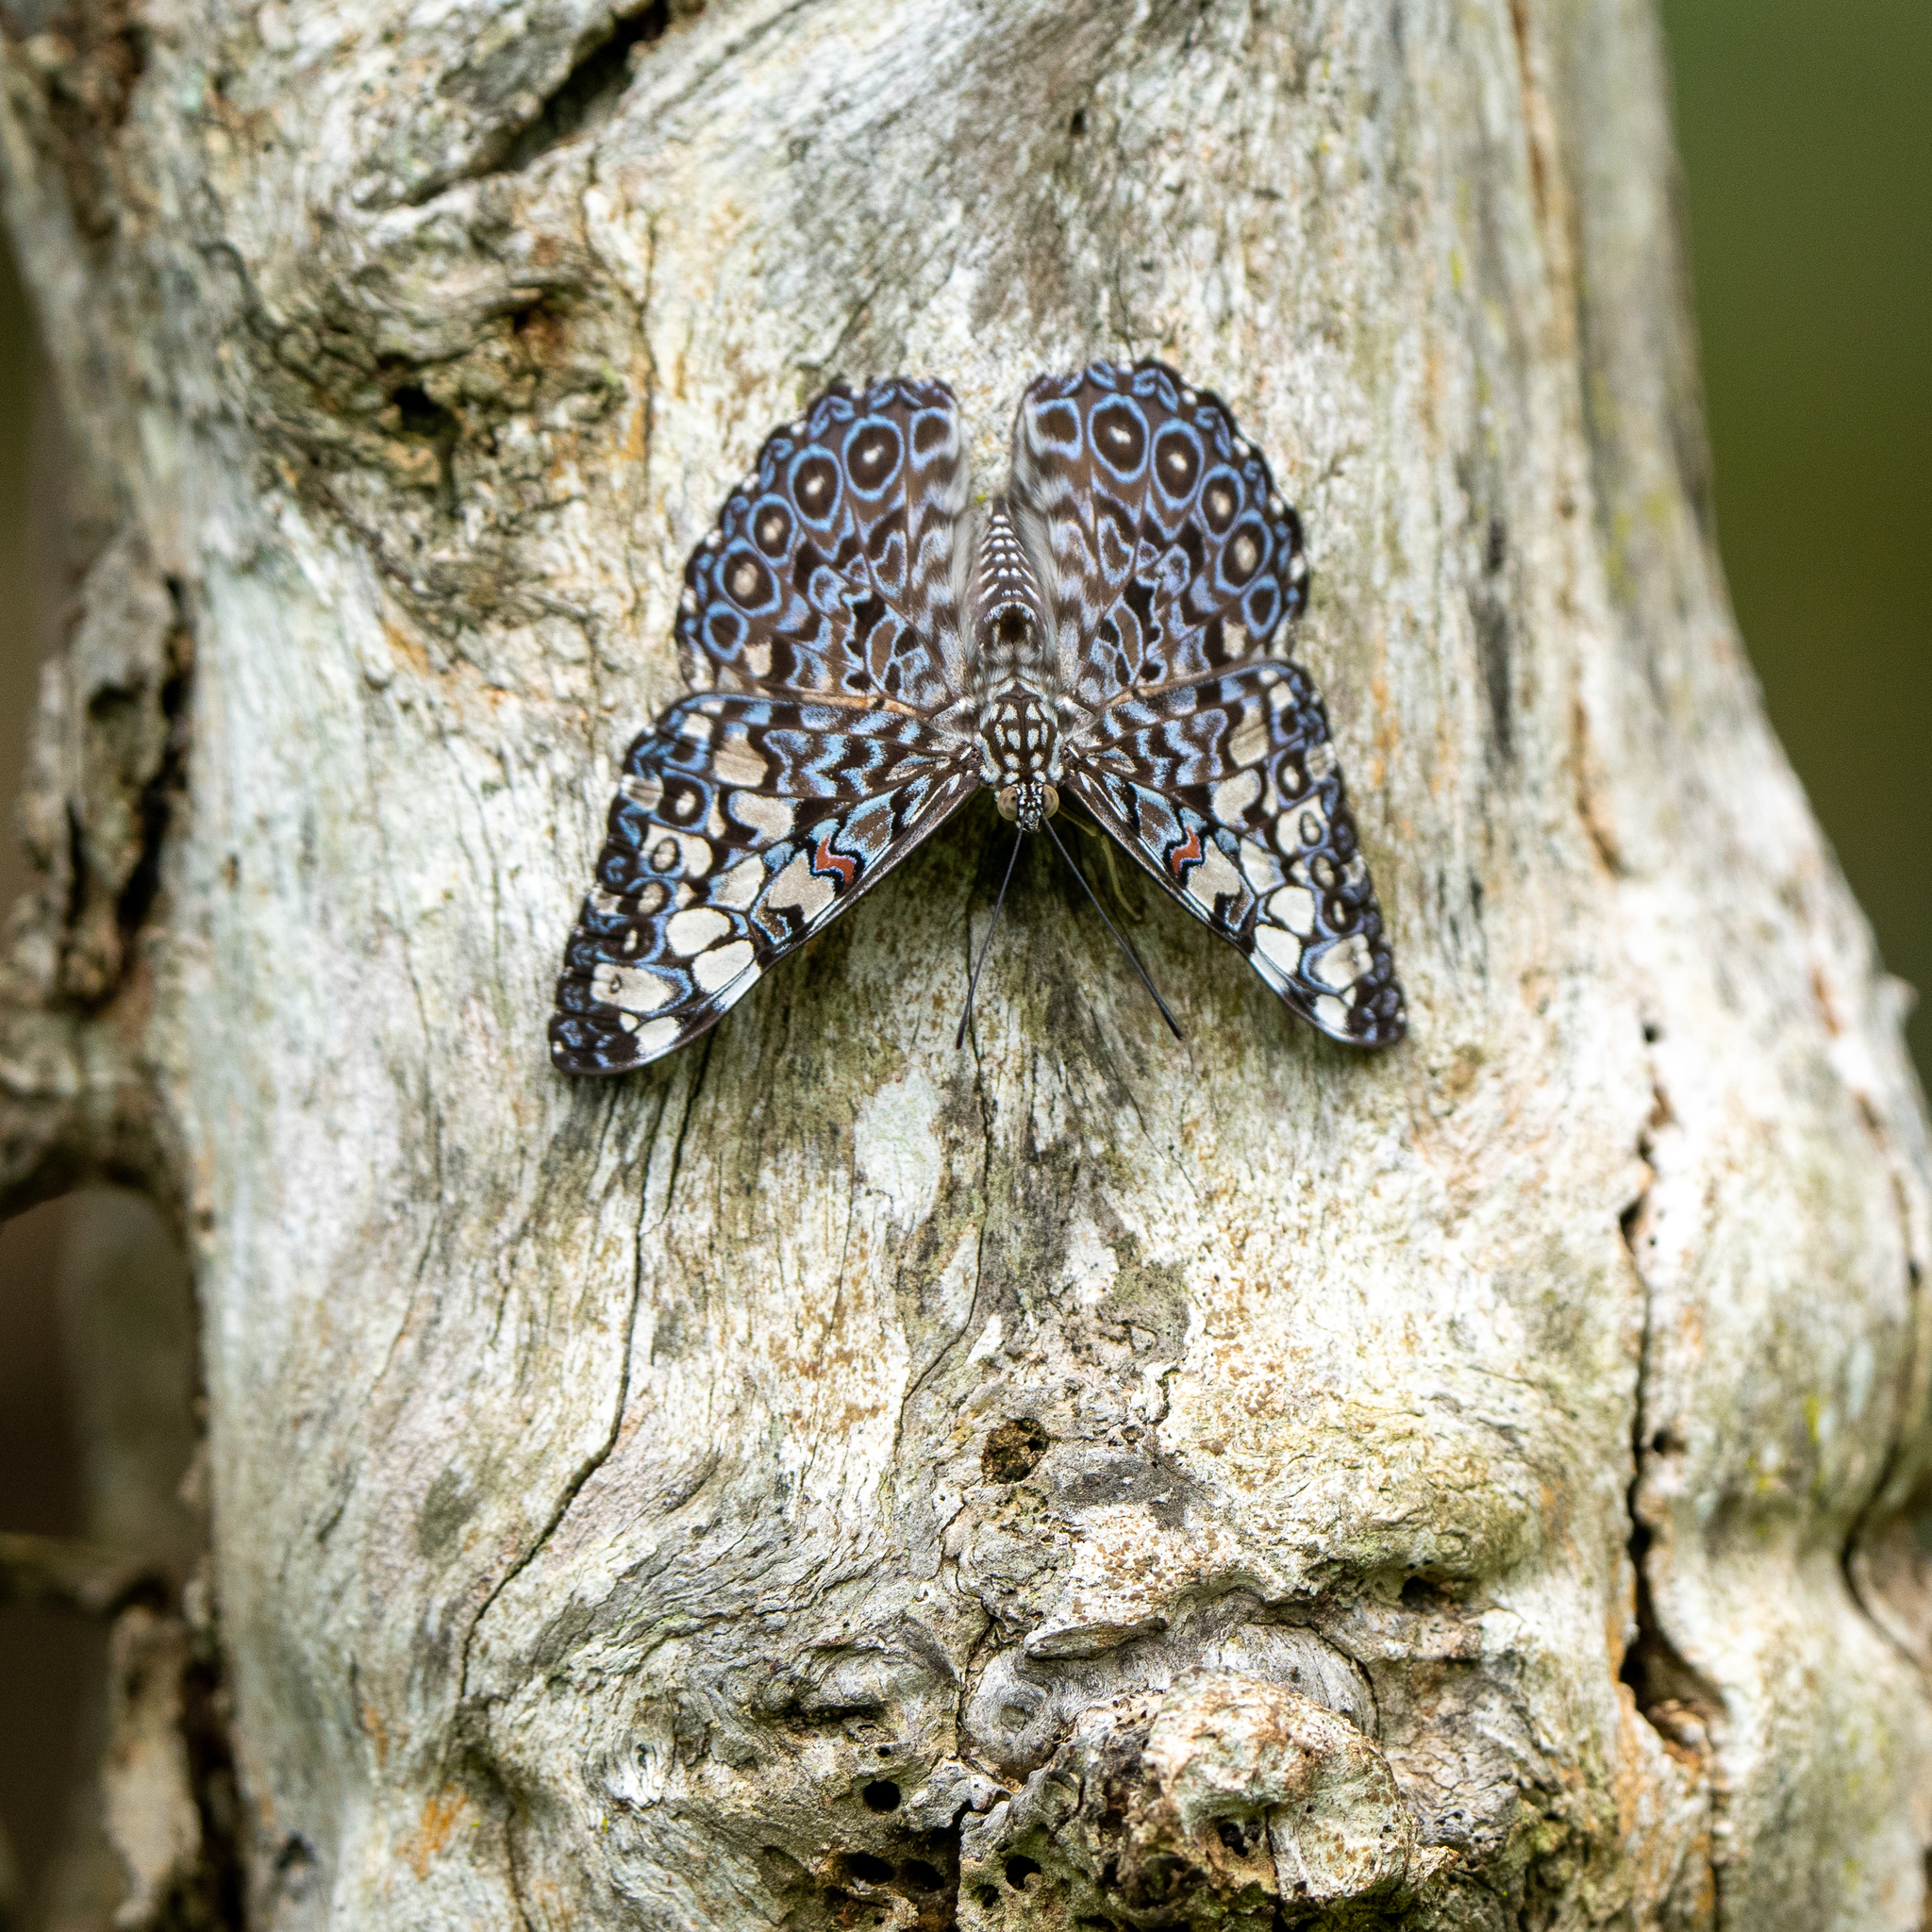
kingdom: Animalia
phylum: Arthropoda
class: Insecta
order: Lepidoptera
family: Nymphalidae
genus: Hamadryas
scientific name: Hamadryas feronia
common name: Variable cracker
